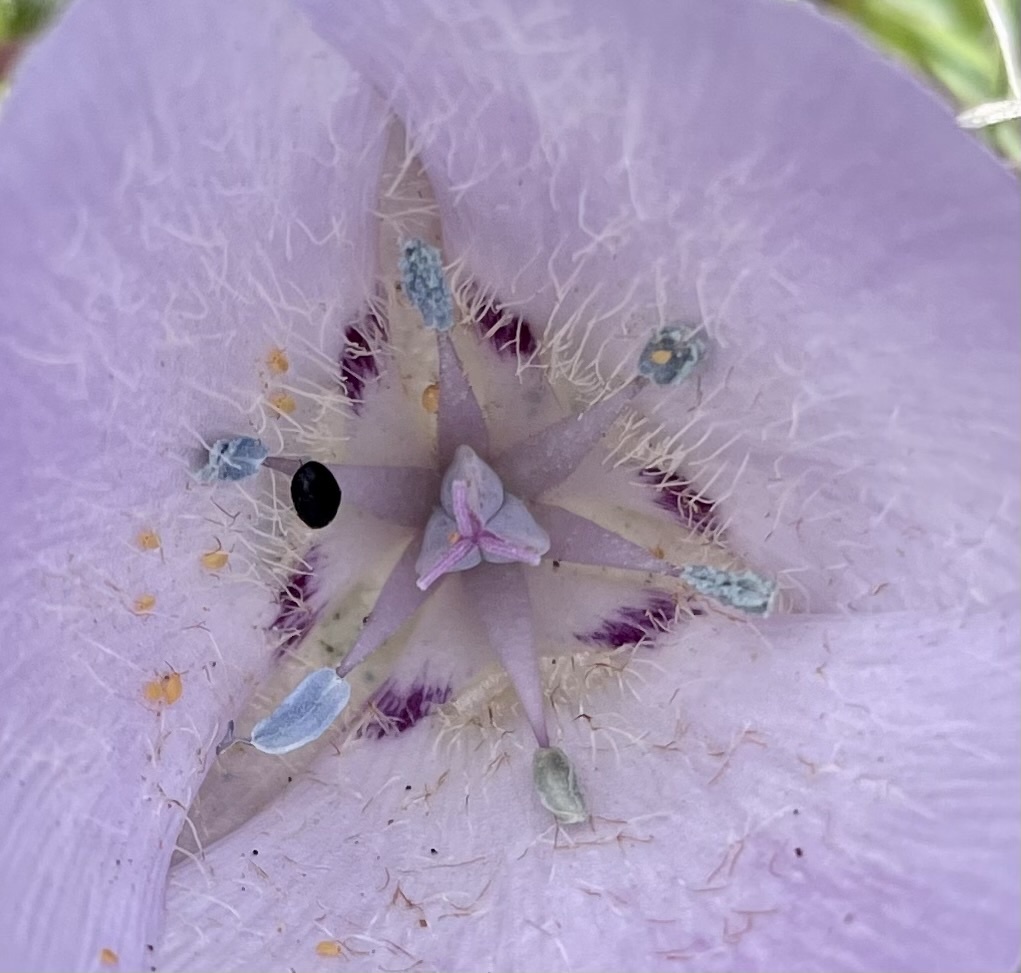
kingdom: Plantae
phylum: Tracheophyta
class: Liliopsida
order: Liliales
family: Liliaceae
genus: Calochortus
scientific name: Calochortus uniflorus
